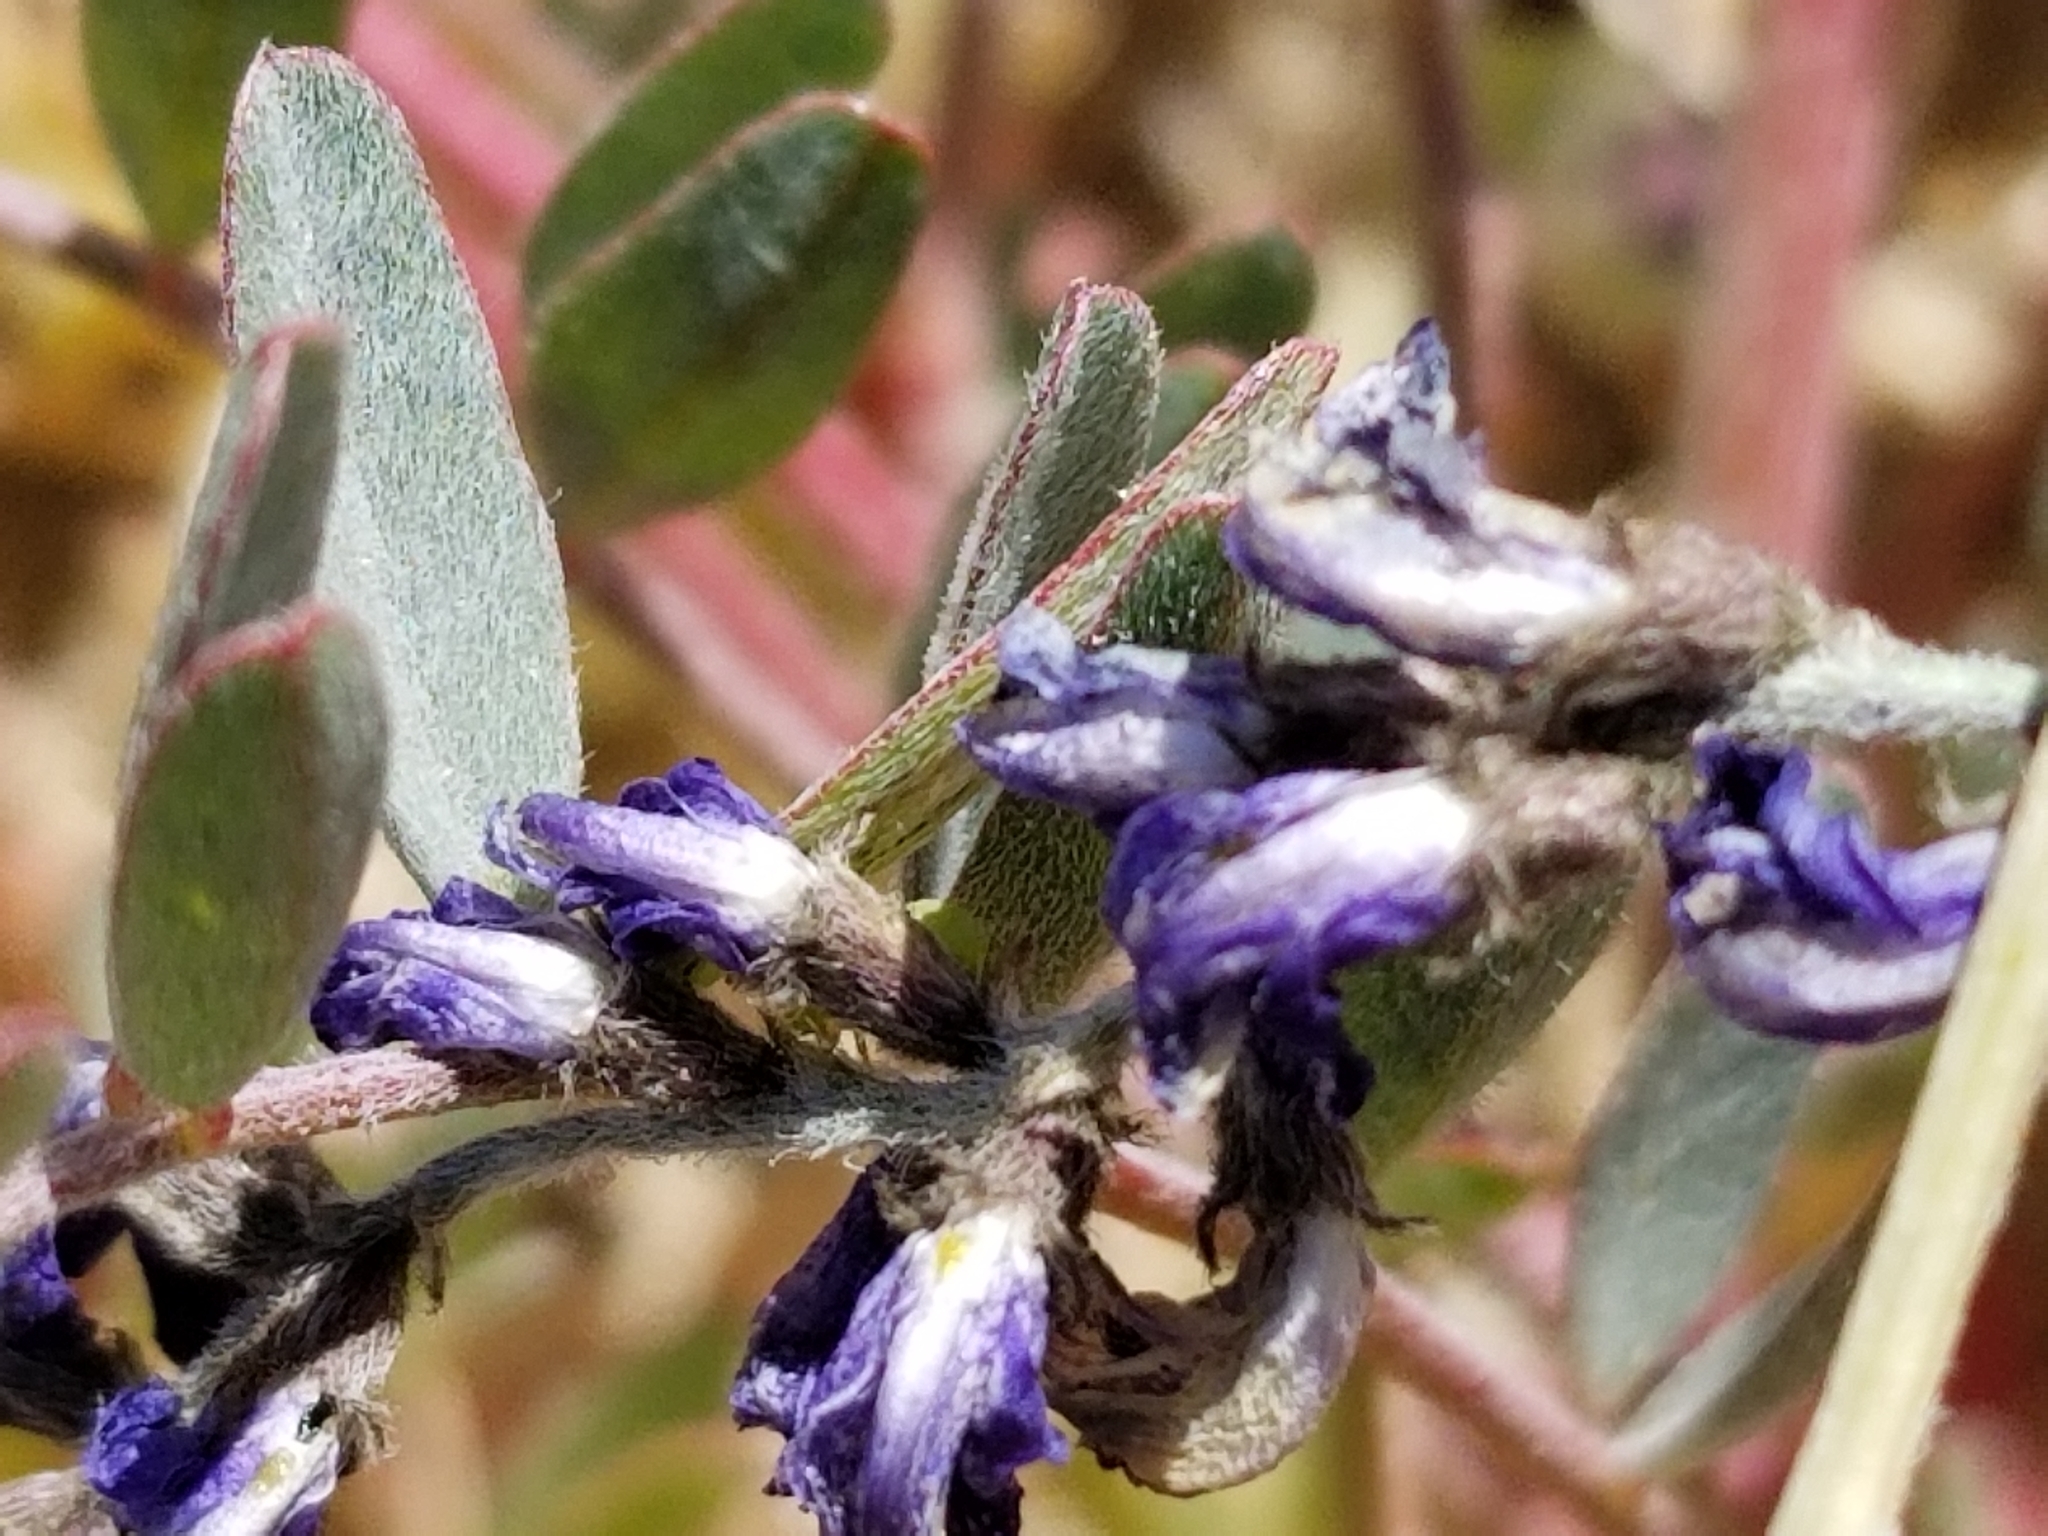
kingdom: Plantae
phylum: Tracheophyta
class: Magnoliopsida
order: Fabales
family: Fabaceae
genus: Astragalus
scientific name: Astragalus palmeri
